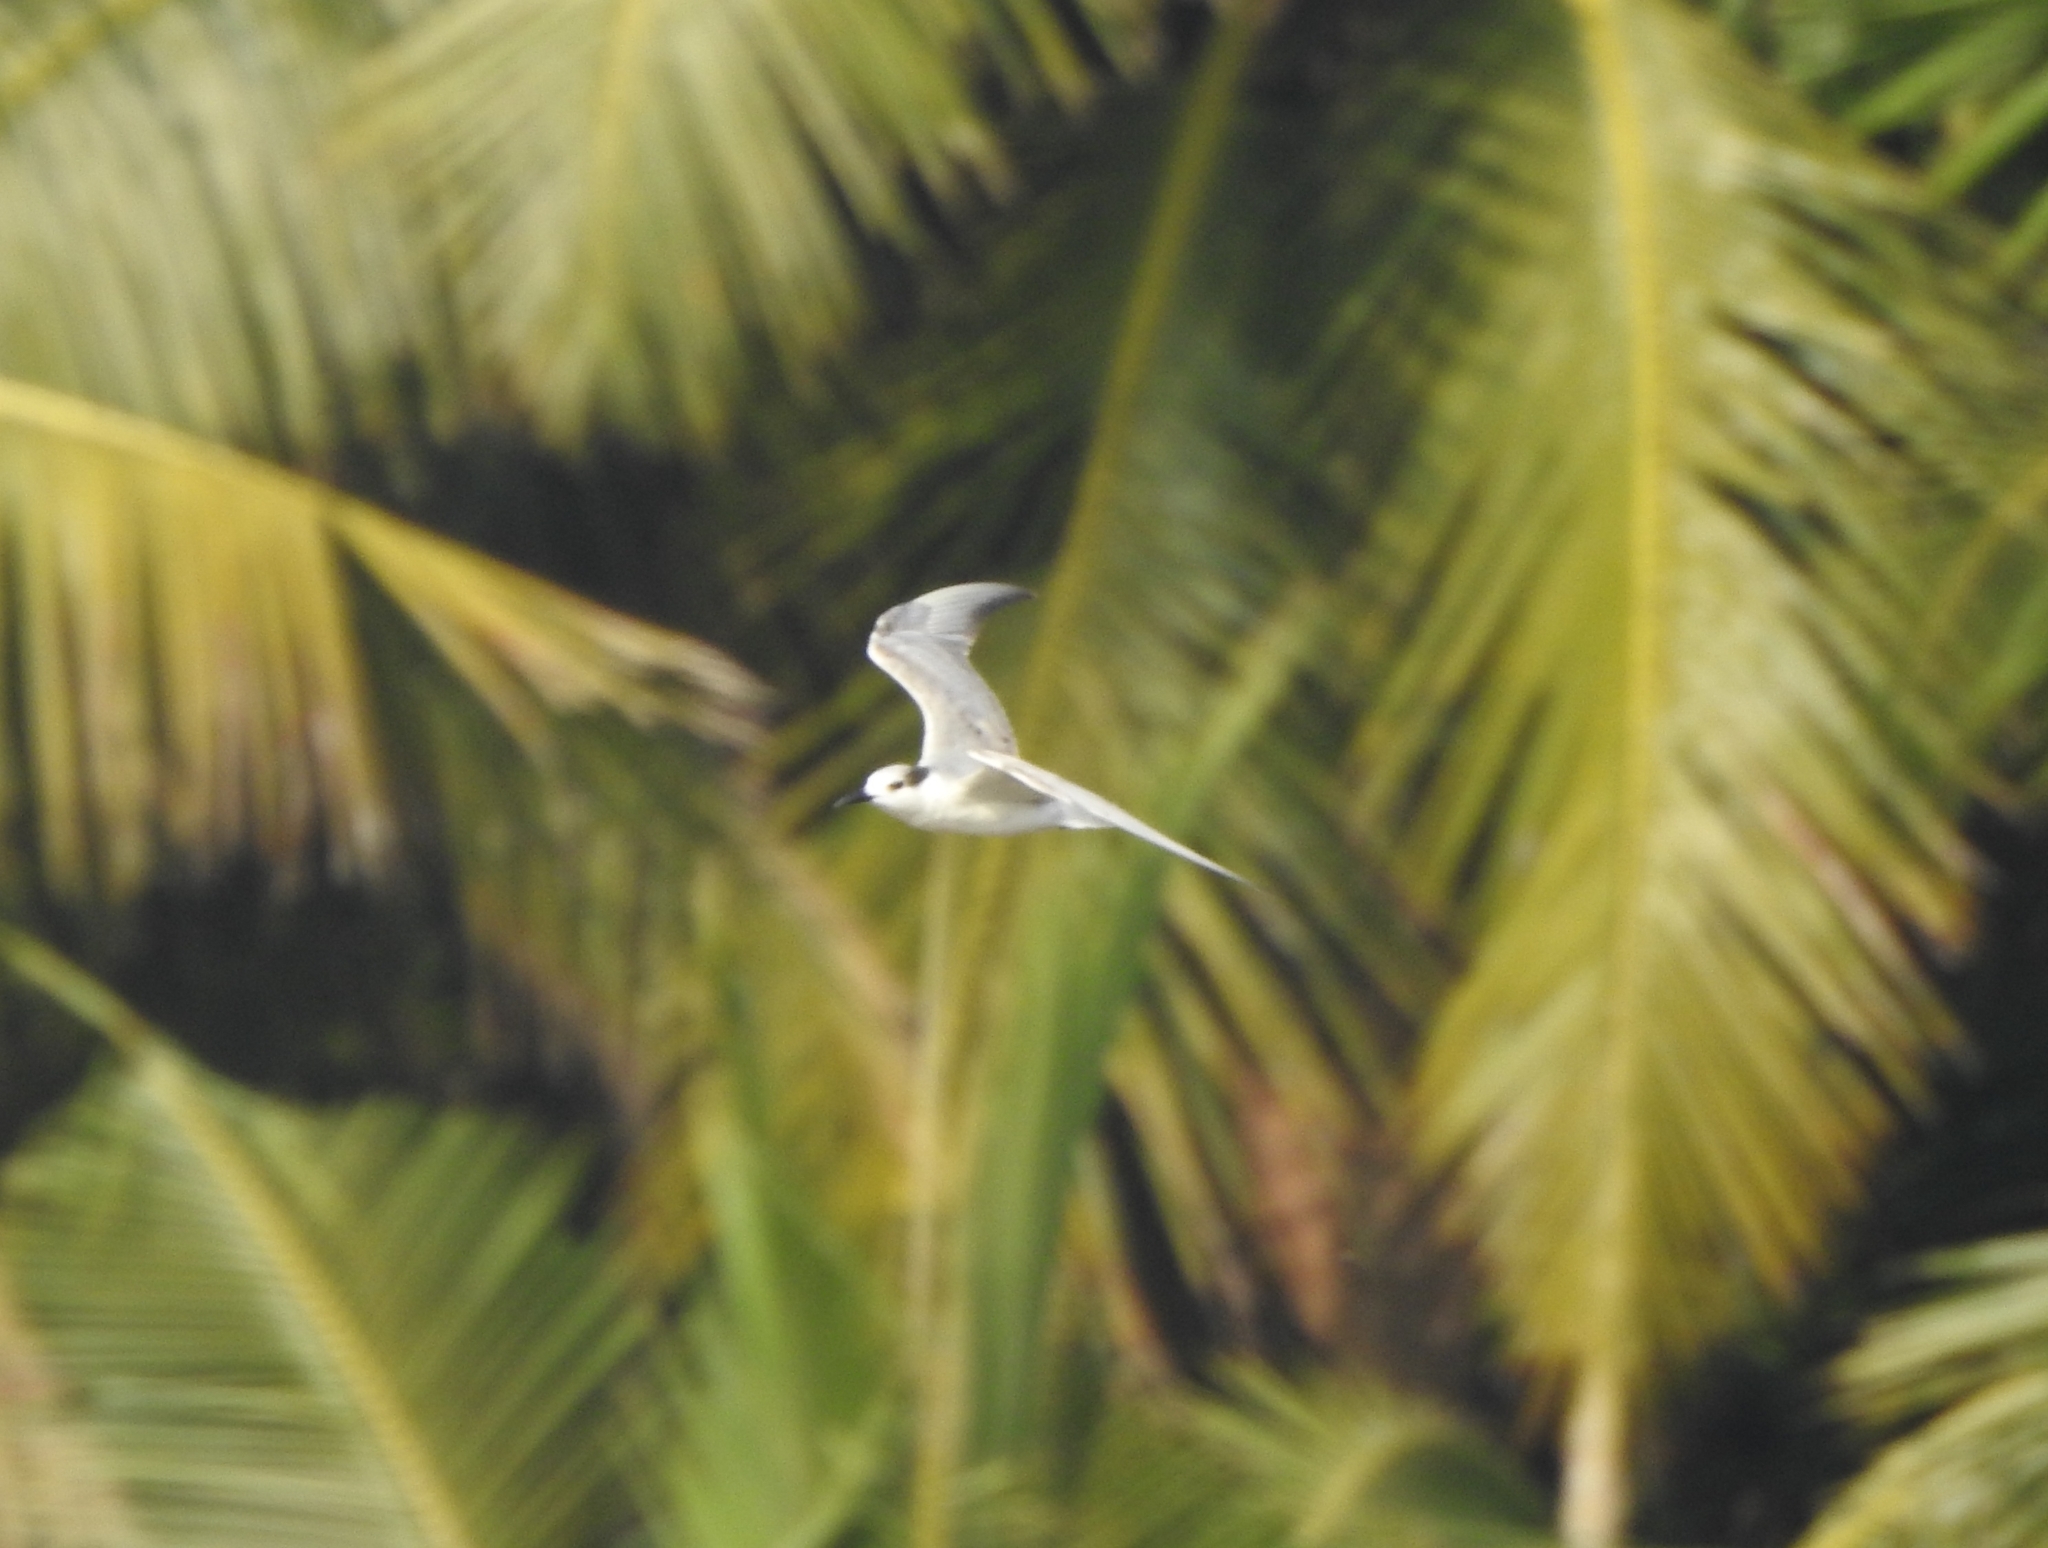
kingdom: Animalia
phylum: Chordata
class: Aves
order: Charadriiformes
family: Laridae
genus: Chlidonias
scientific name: Chlidonias hybrida
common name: Whiskered tern
